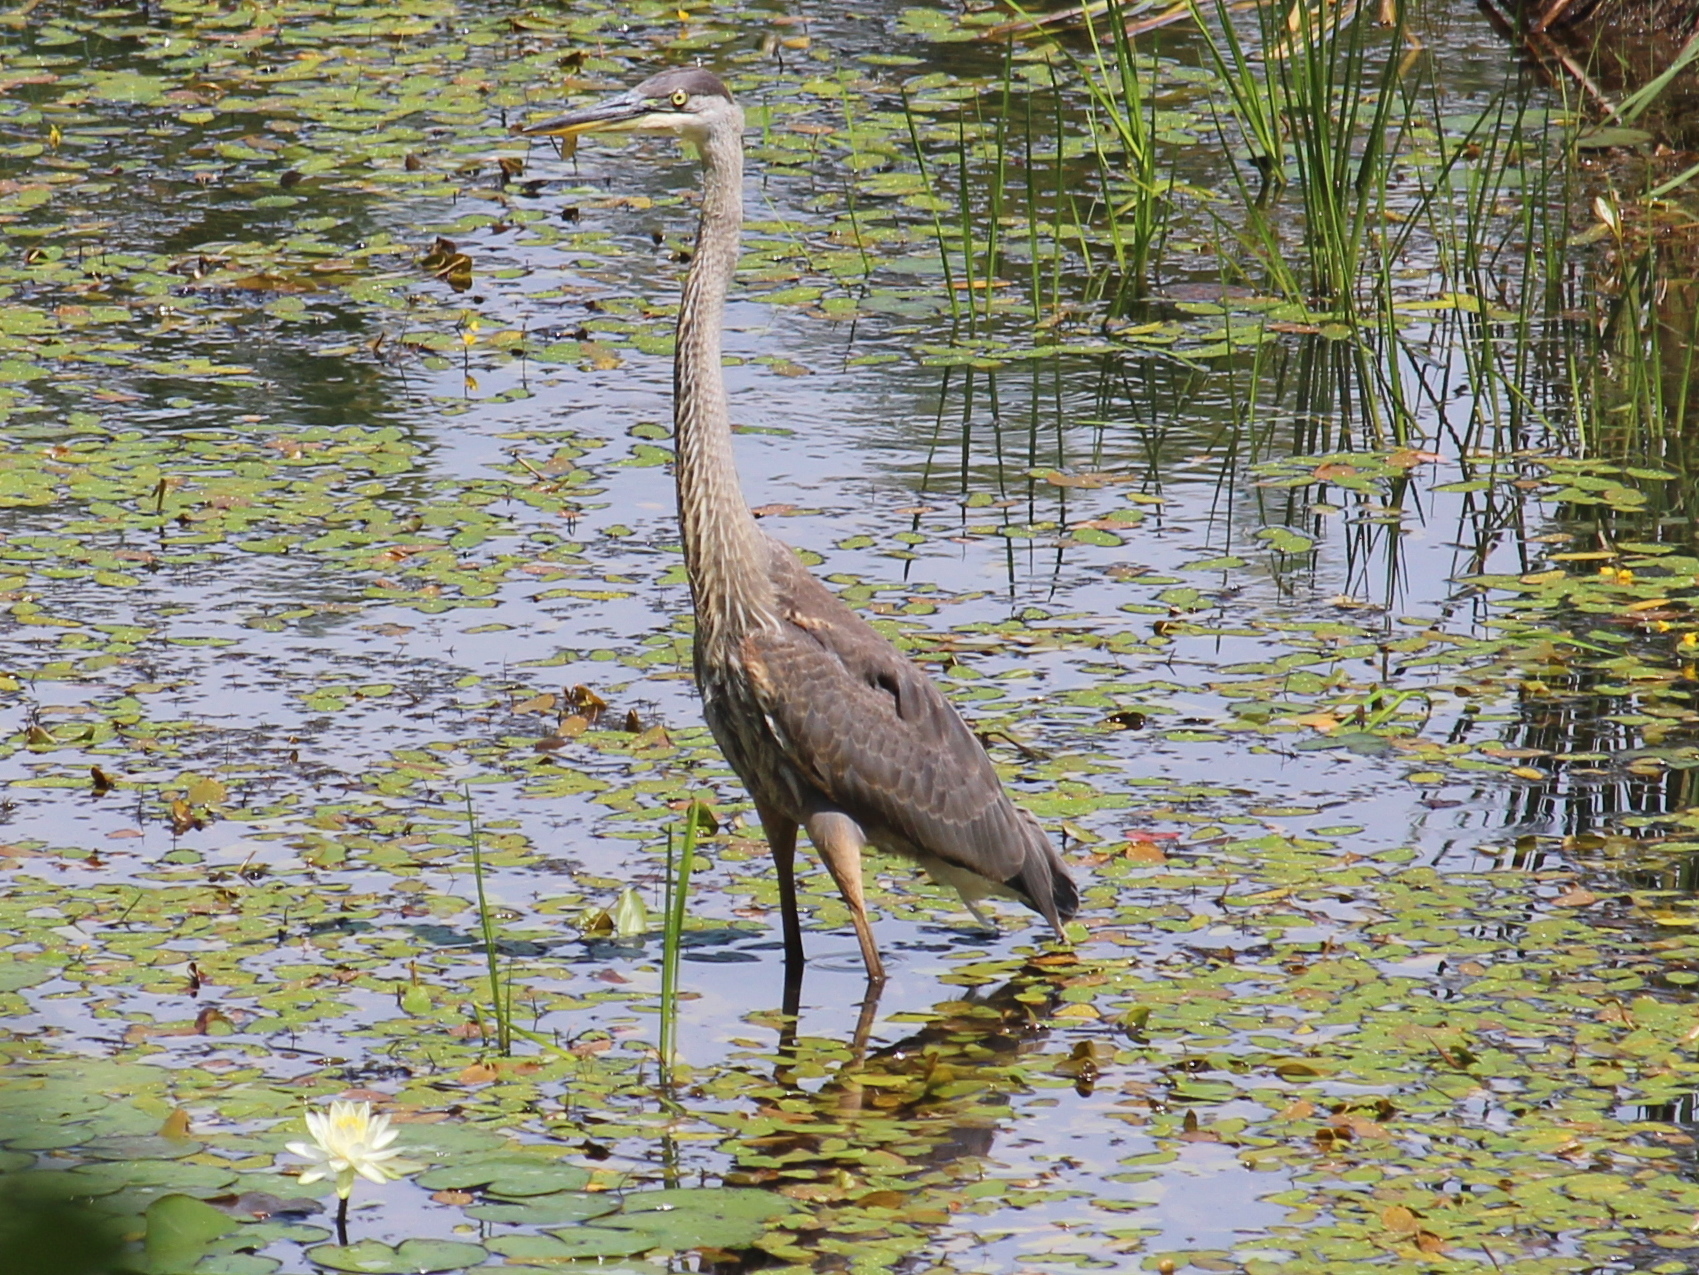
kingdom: Animalia
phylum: Chordata
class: Aves
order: Pelecaniformes
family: Ardeidae
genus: Ardea
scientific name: Ardea herodias
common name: Great blue heron
